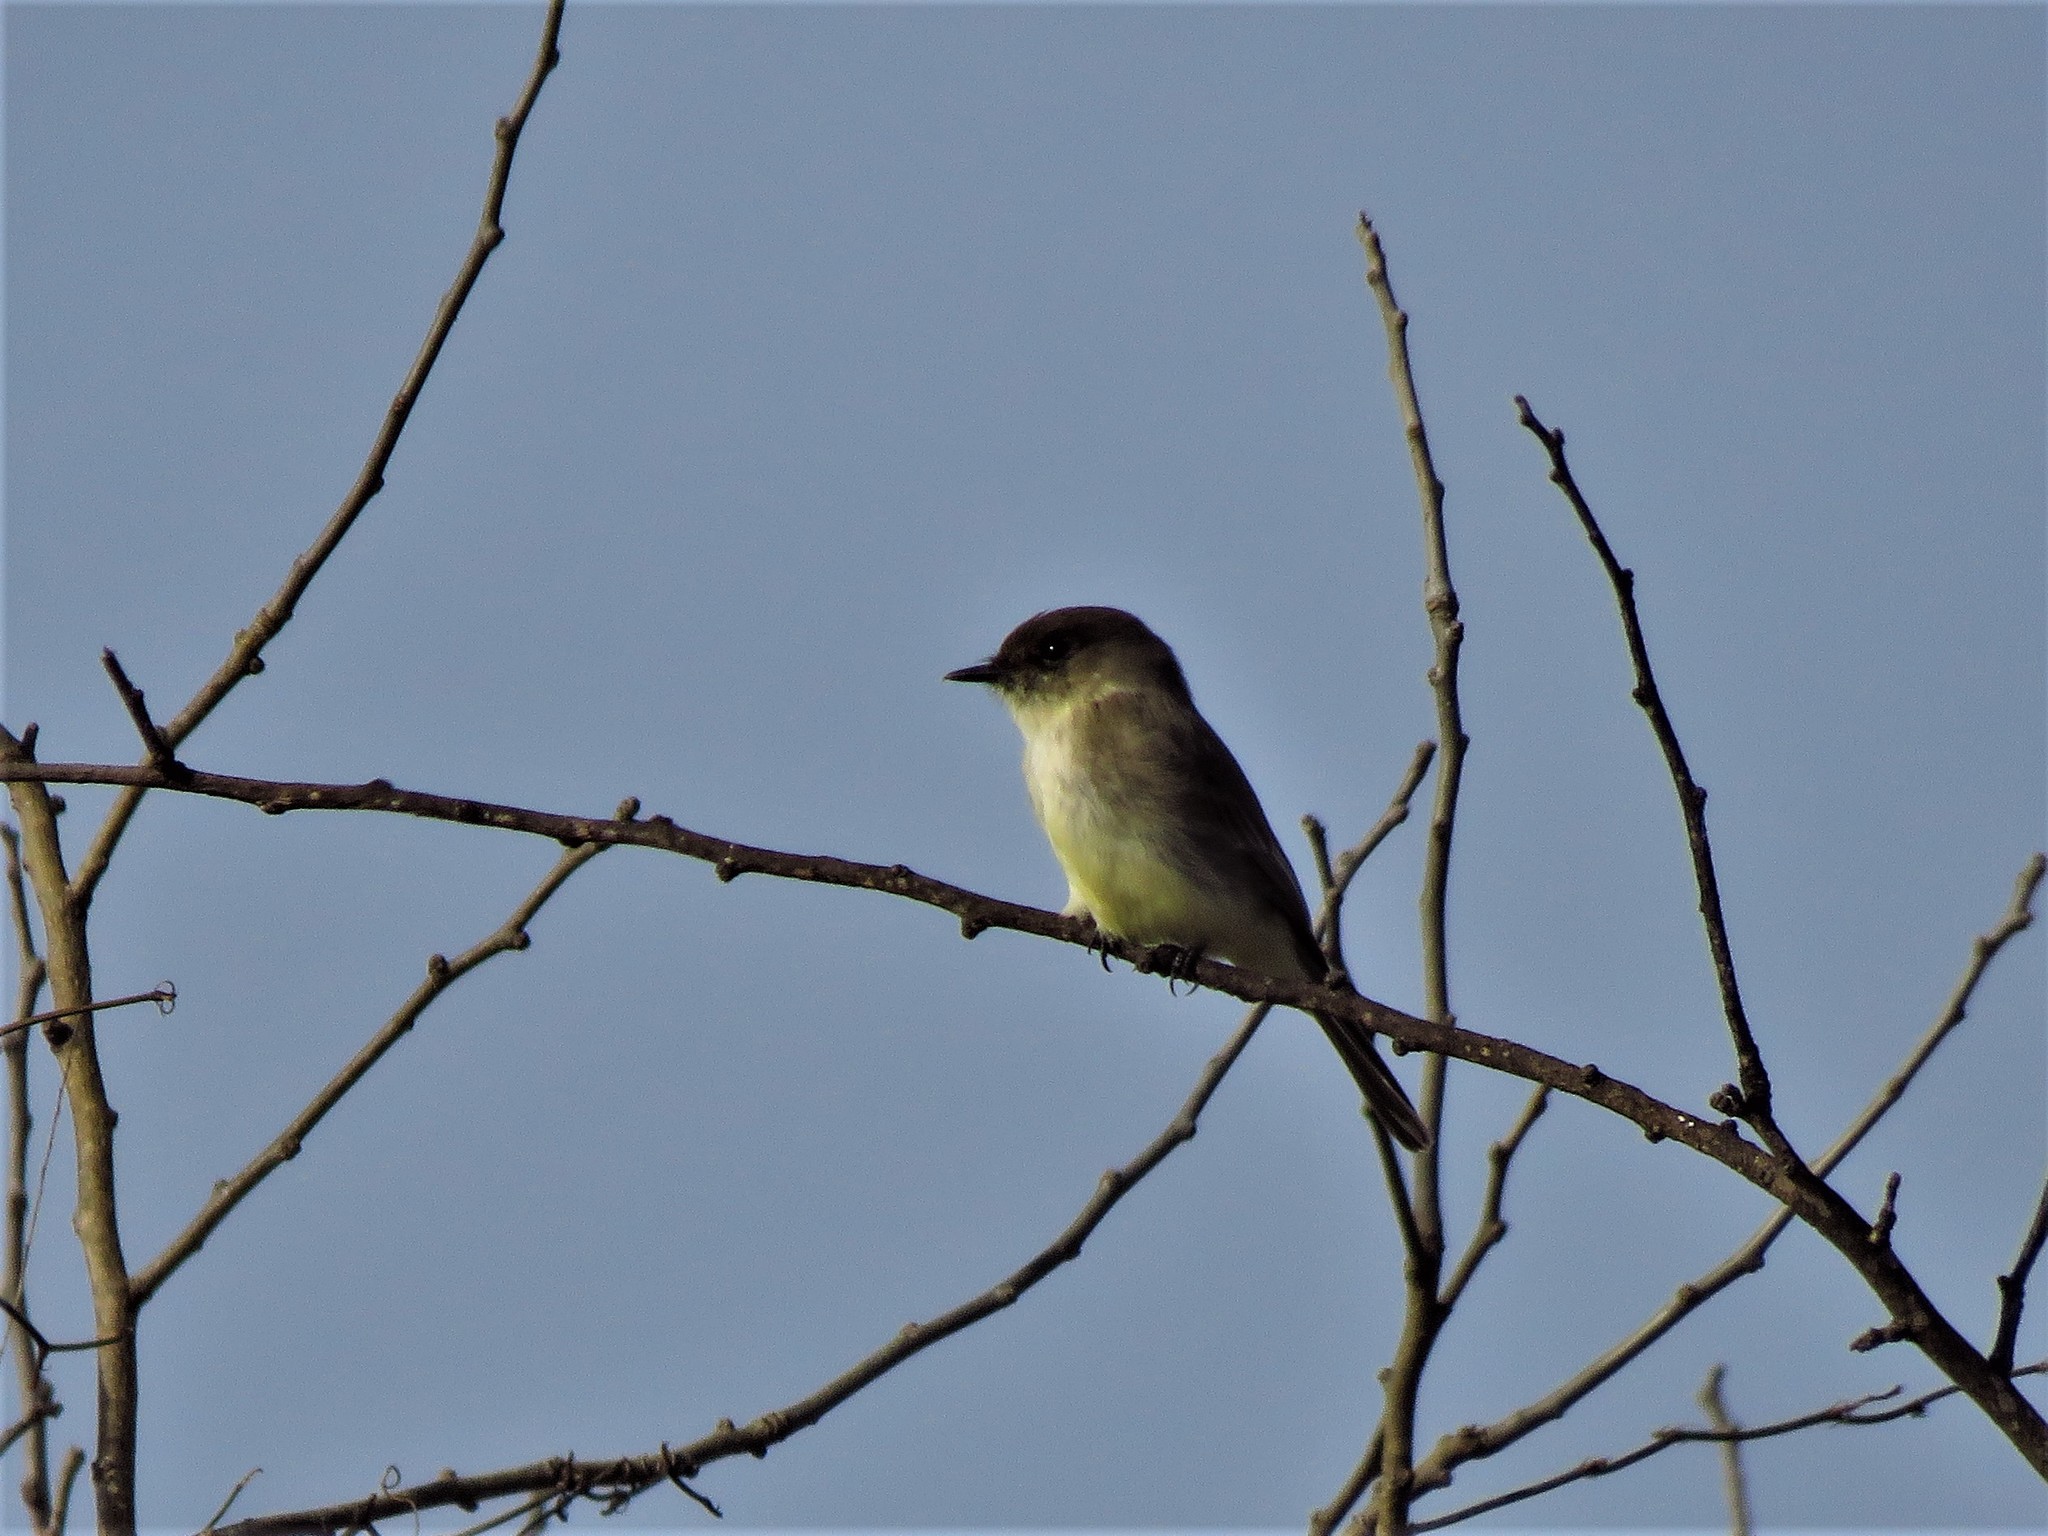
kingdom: Animalia
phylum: Chordata
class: Aves
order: Passeriformes
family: Tyrannidae
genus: Sayornis
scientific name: Sayornis phoebe
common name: Eastern phoebe
